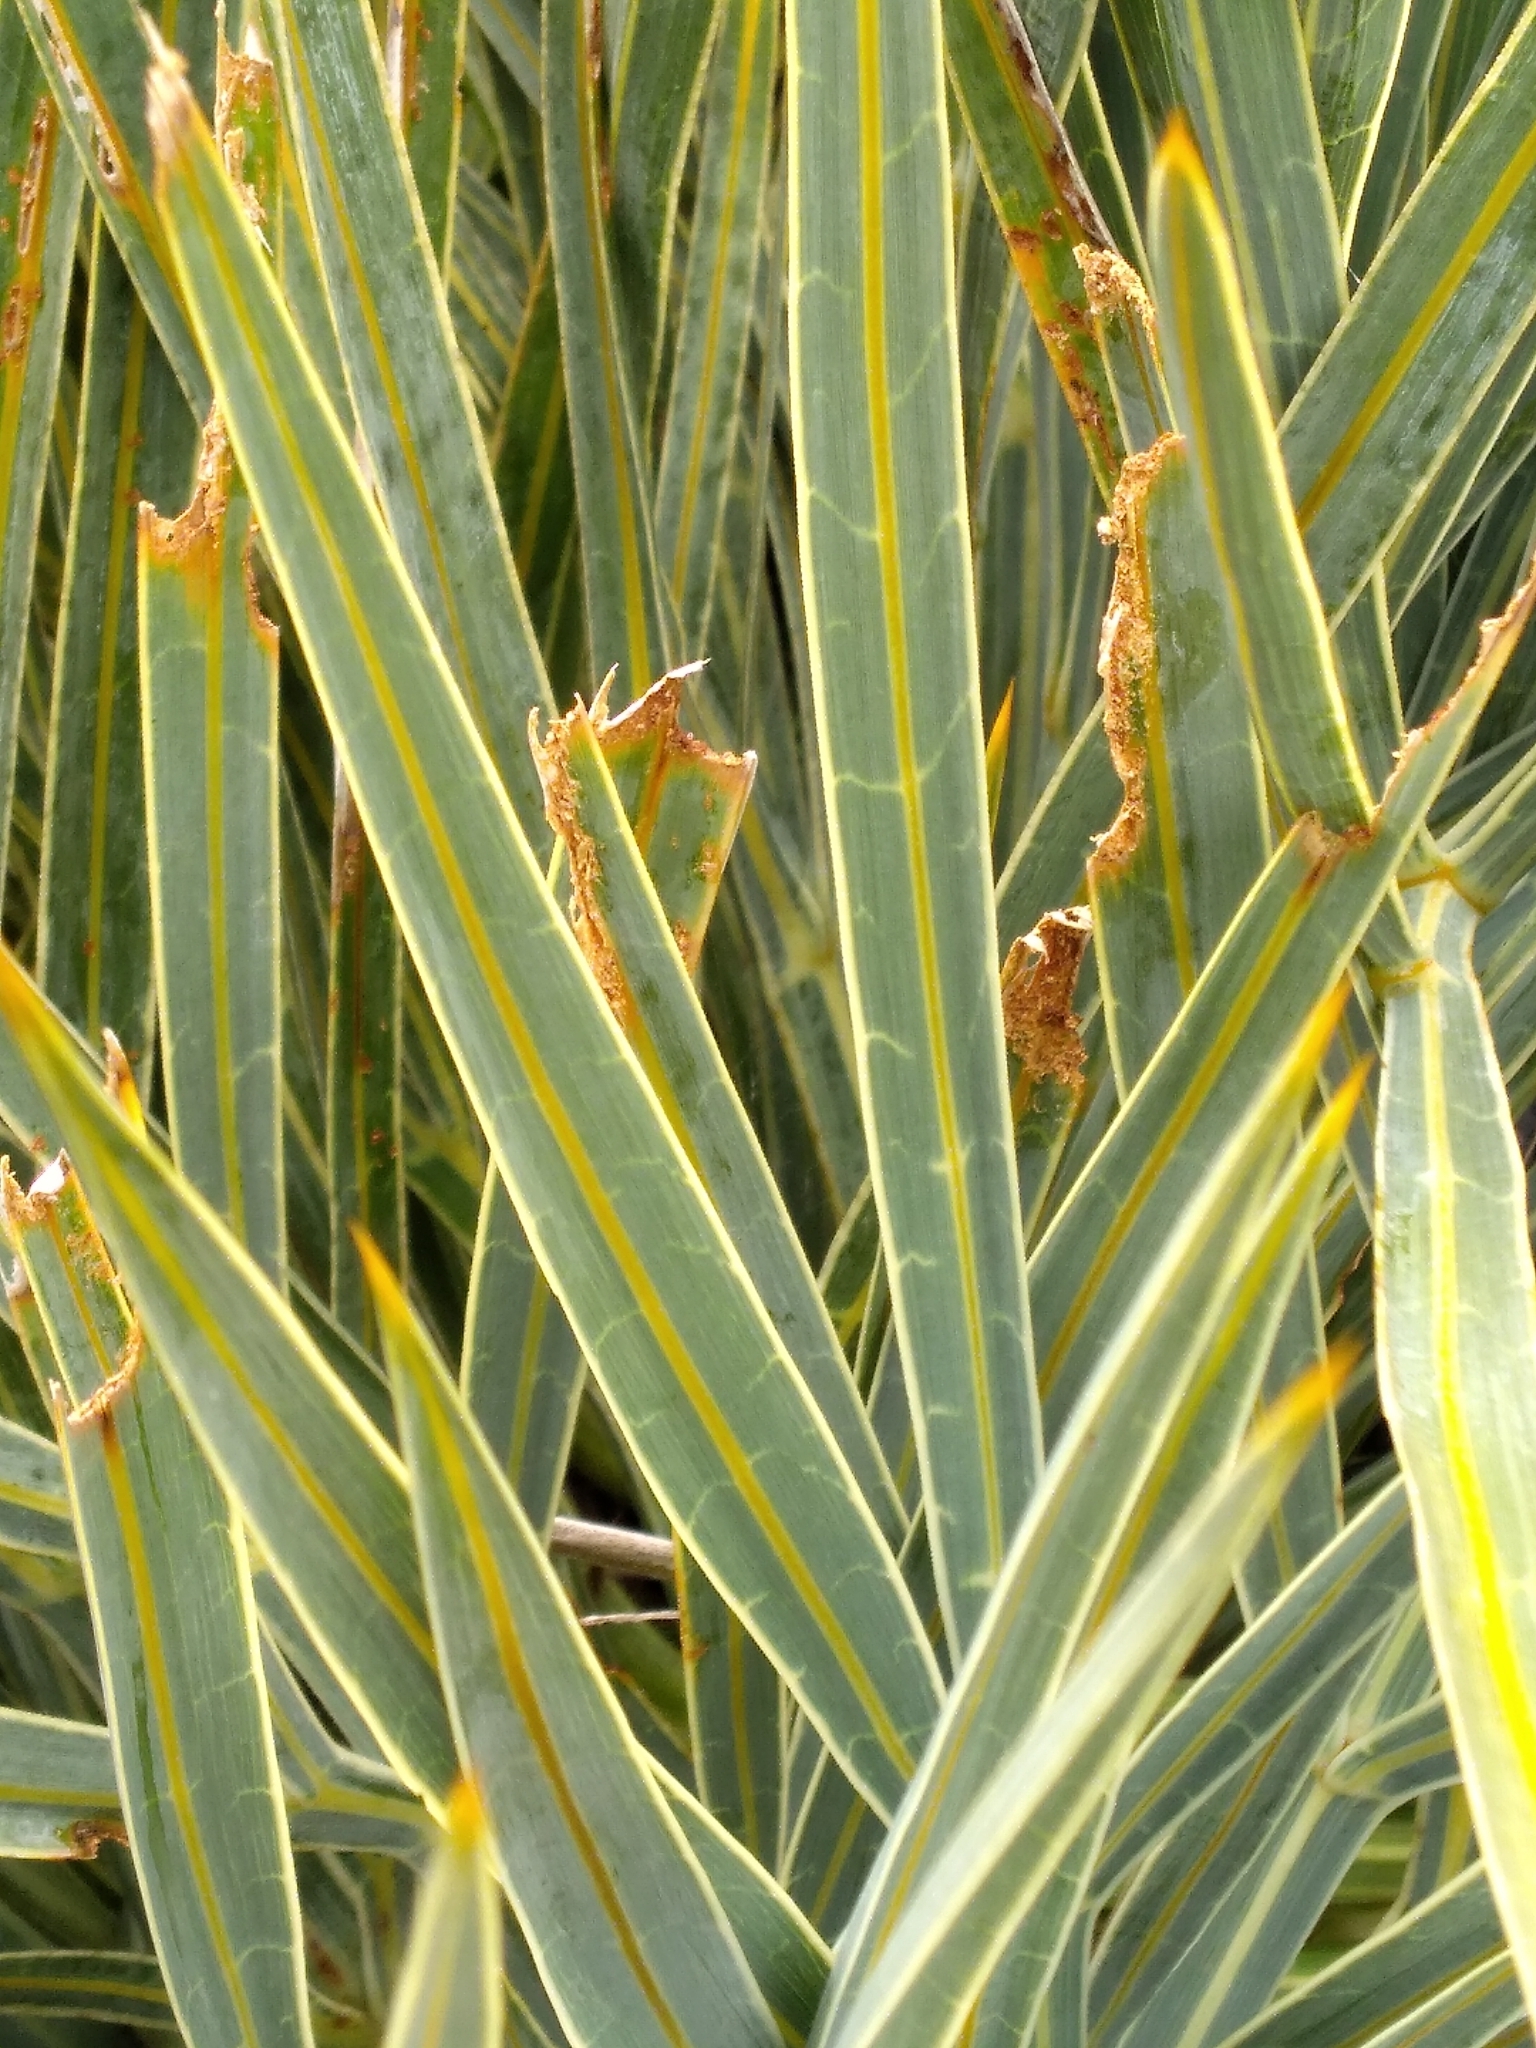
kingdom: Plantae
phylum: Tracheophyta
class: Magnoliopsida
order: Apiales
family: Apiaceae
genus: Aciphylla
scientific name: Aciphylla colensoi
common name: Colenso's spaniard
